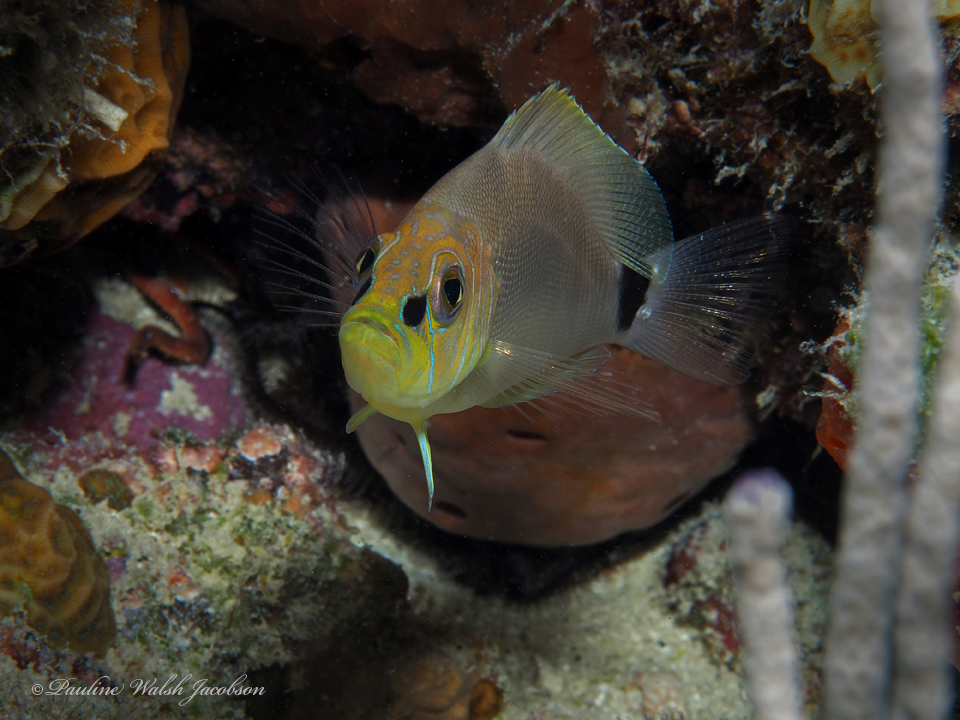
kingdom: Animalia
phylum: Chordata
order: Perciformes
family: Serranidae
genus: Hypoplectrus
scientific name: Hypoplectrus unicolor
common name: Butter hamlet
